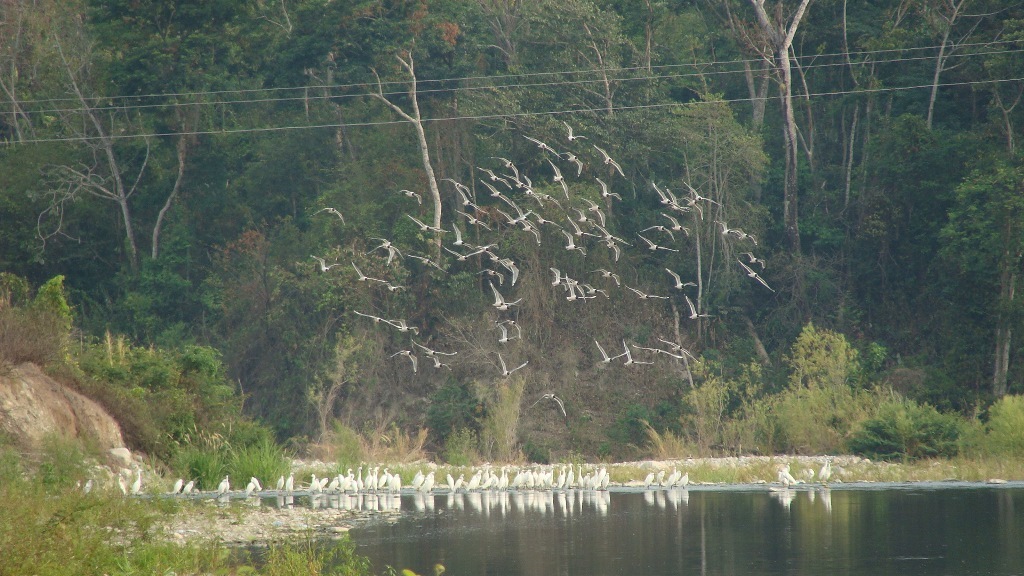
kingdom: Animalia
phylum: Chordata
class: Aves
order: Charadriiformes
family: Laridae
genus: Leucophaeus
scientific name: Leucophaeus pipixcan
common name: Franklin's gull
